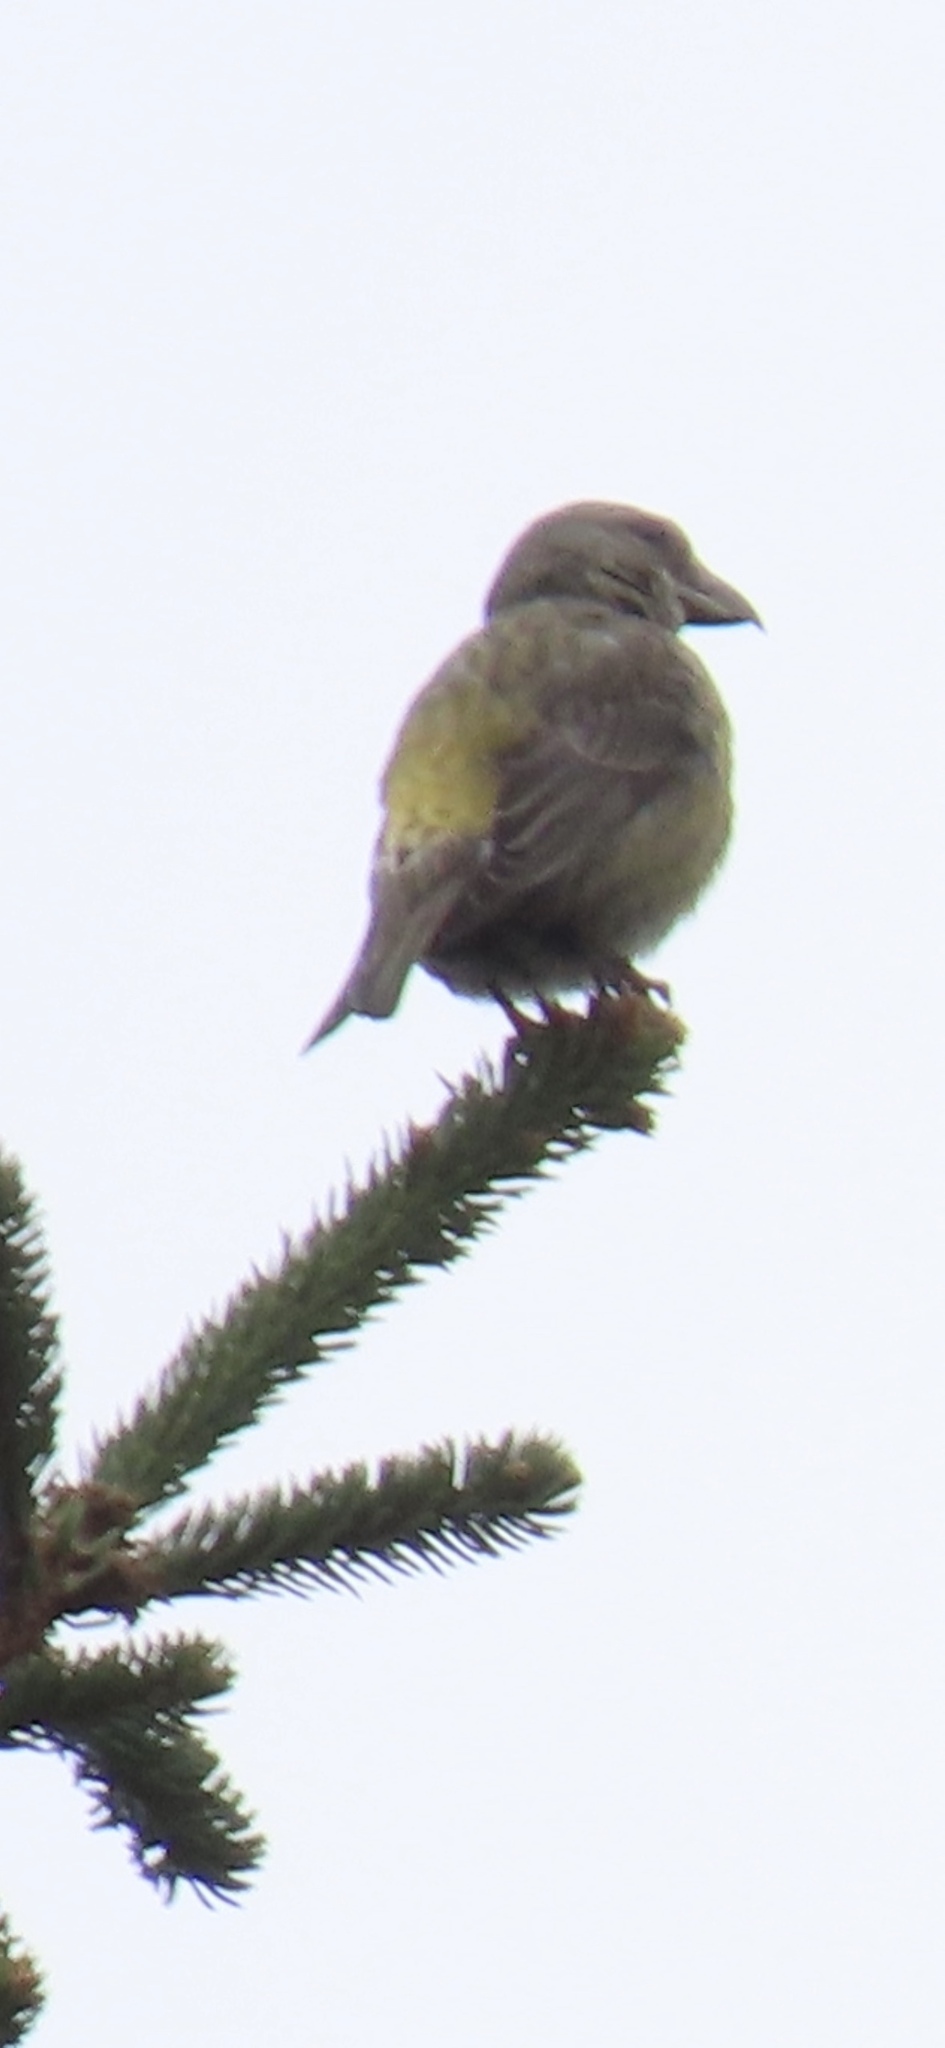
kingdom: Animalia
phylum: Chordata
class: Aves
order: Passeriformes
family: Fringillidae
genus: Loxia
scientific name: Loxia curvirostra
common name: Red crossbill
